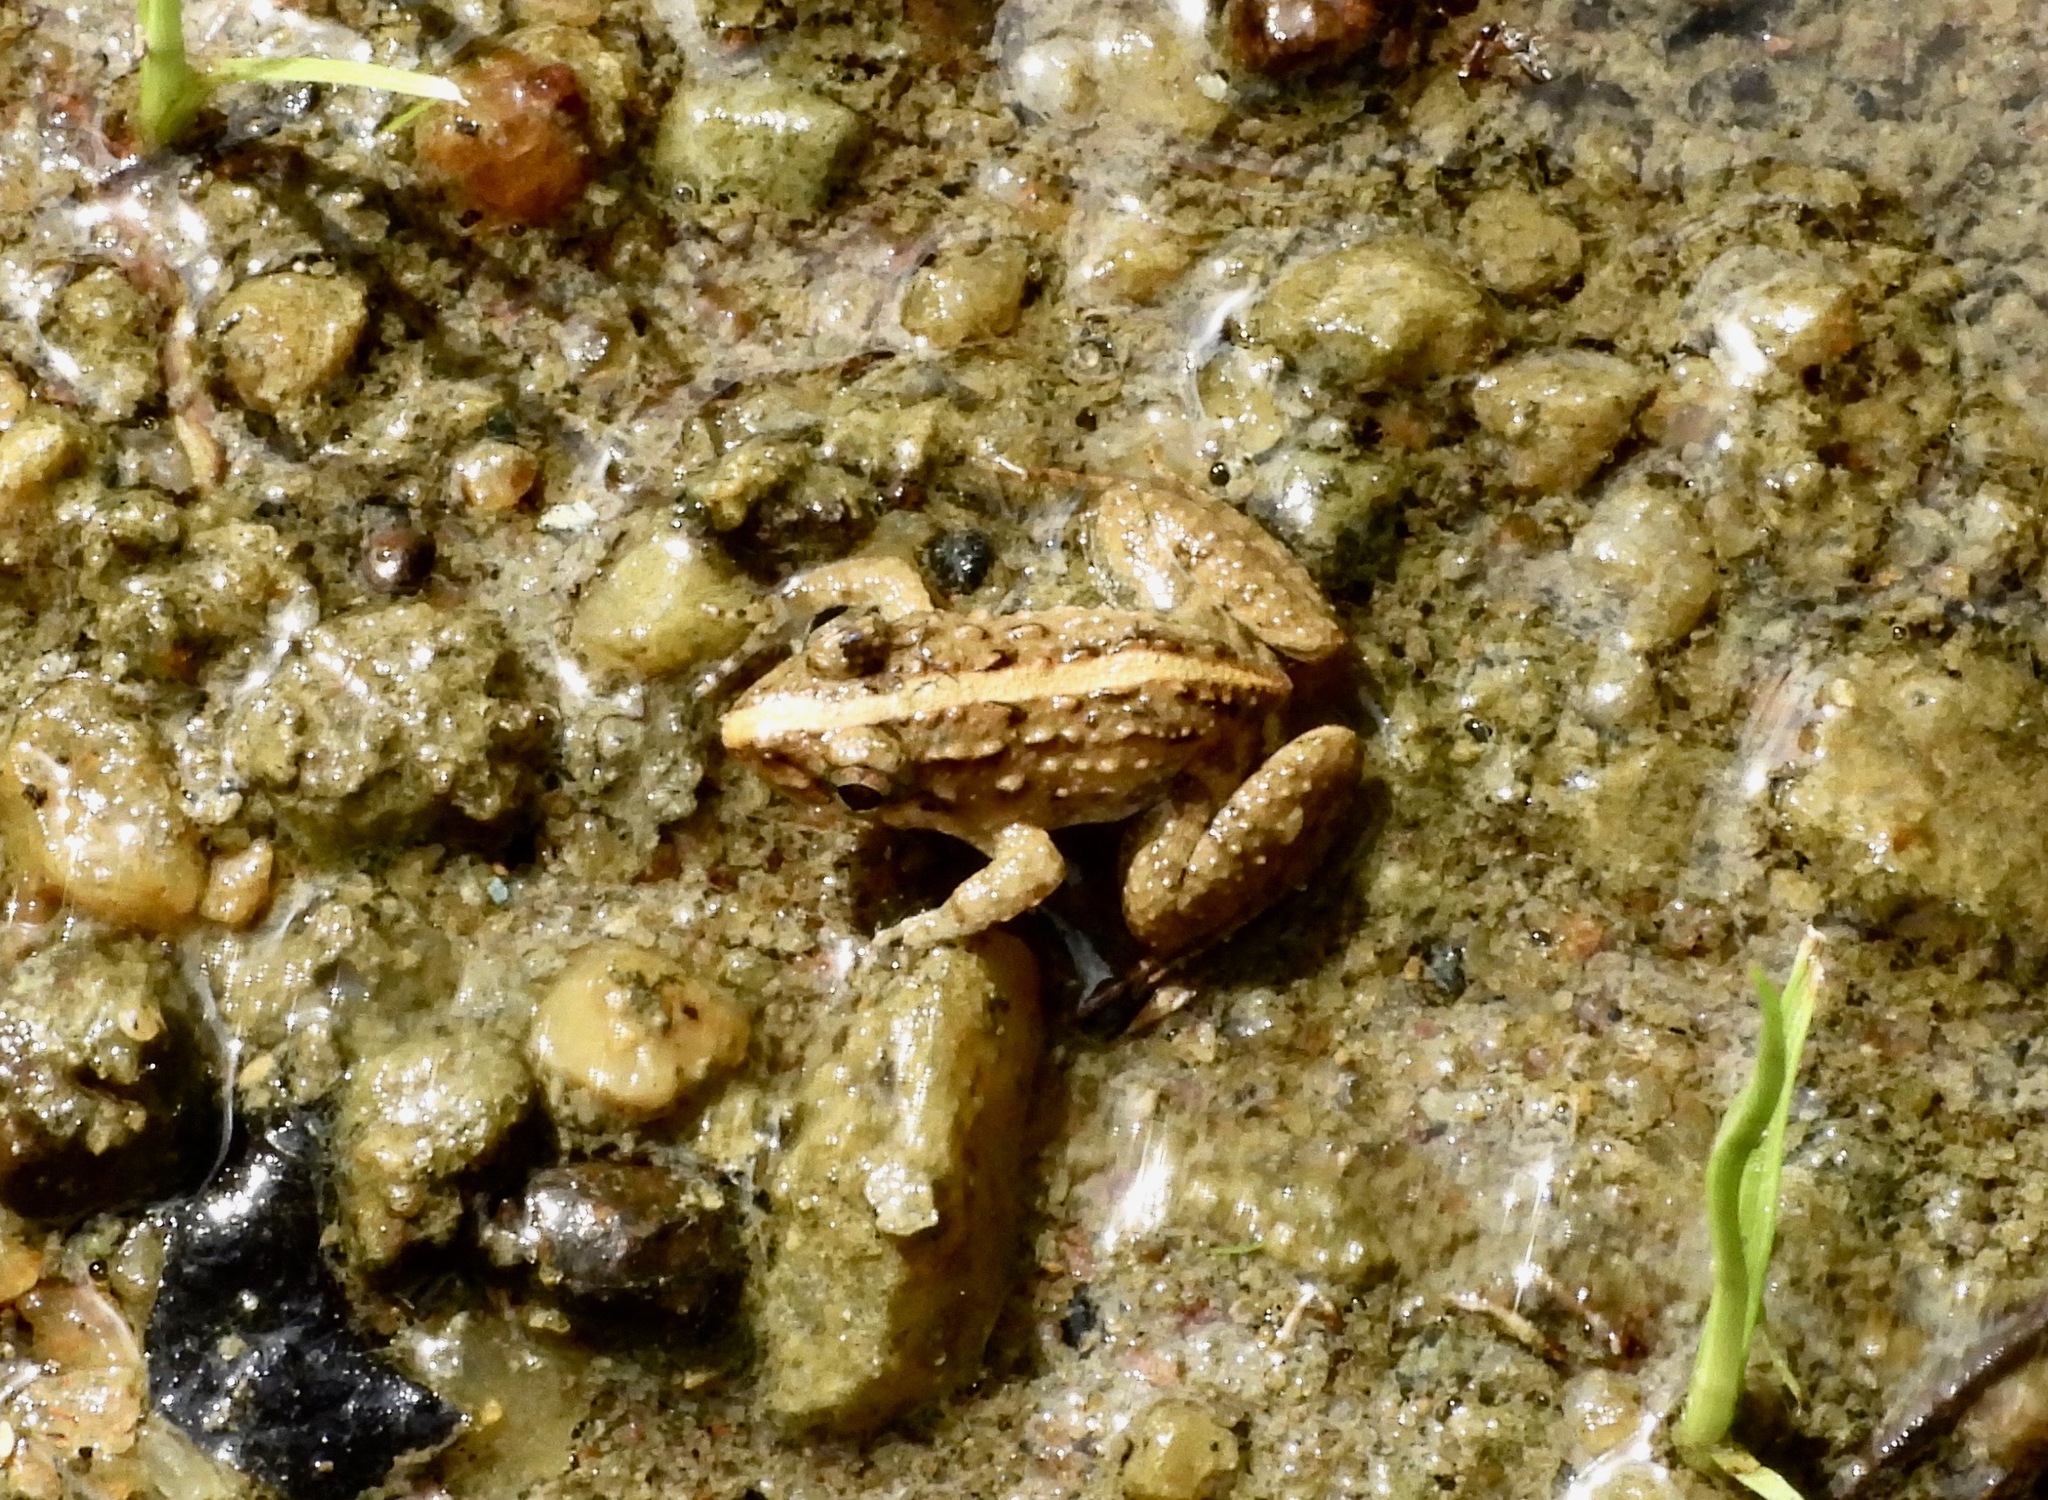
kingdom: Animalia
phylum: Chordata
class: Amphibia
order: Anura
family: Dicroglossidae
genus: Minervarya
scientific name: Minervarya syhadrensis
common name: Bombay wart frog
